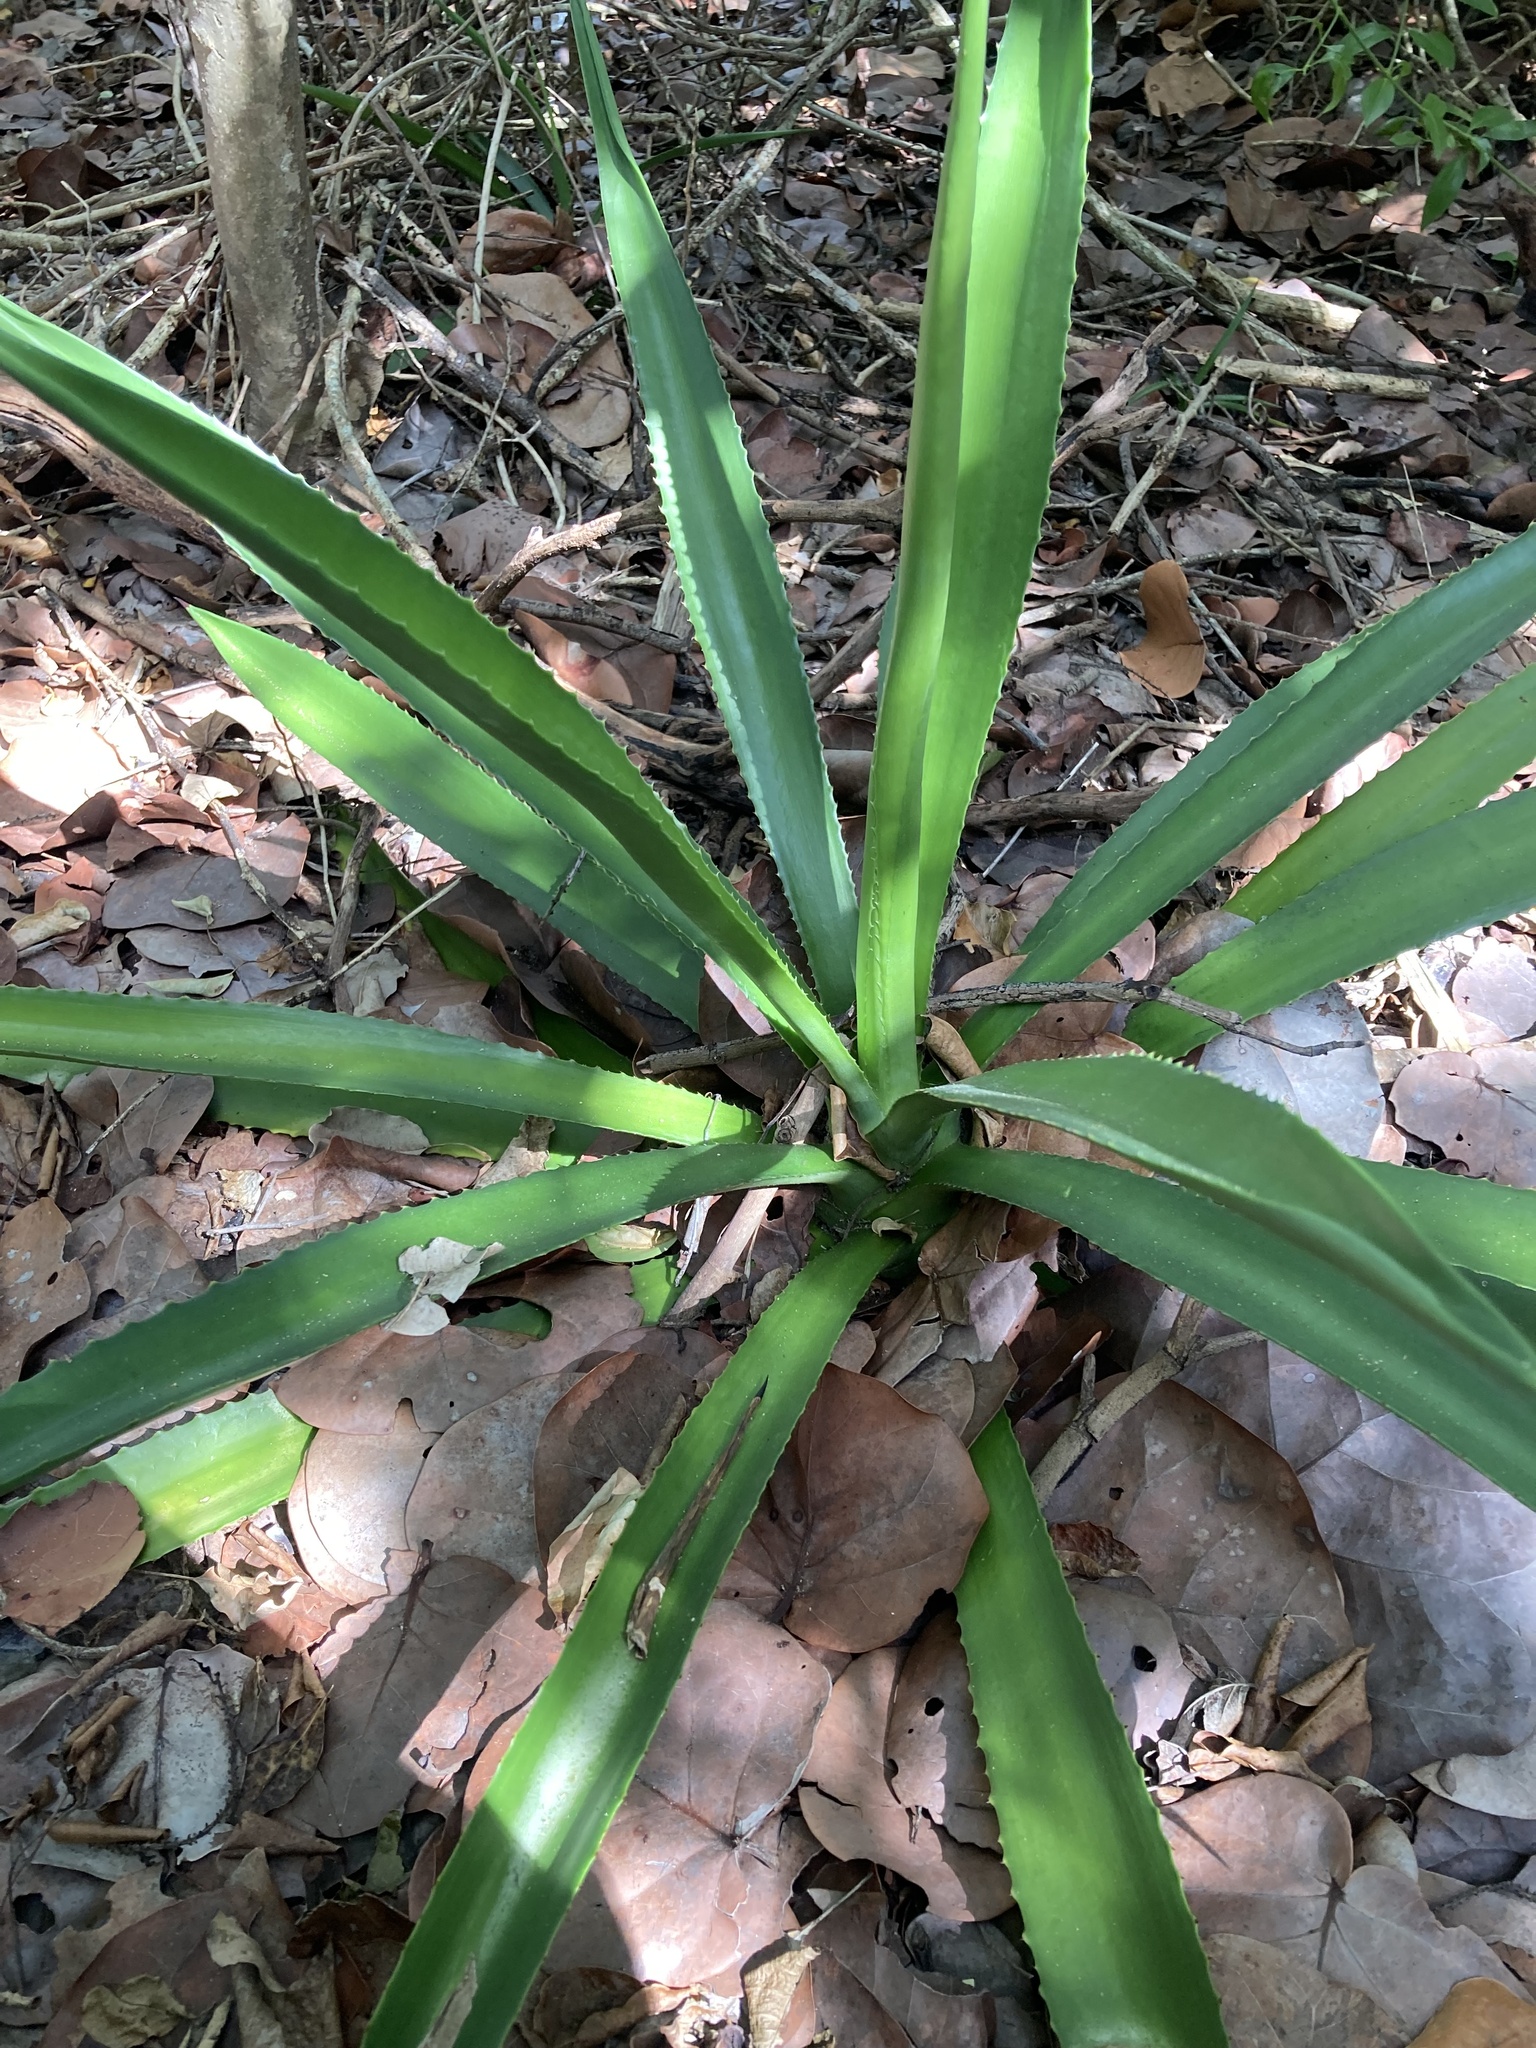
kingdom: Plantae
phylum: Tracheophyta
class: Liliopsida
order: Asparagales
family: Asparagaceae
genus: Agave
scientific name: Agave decipiens
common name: False sisal
